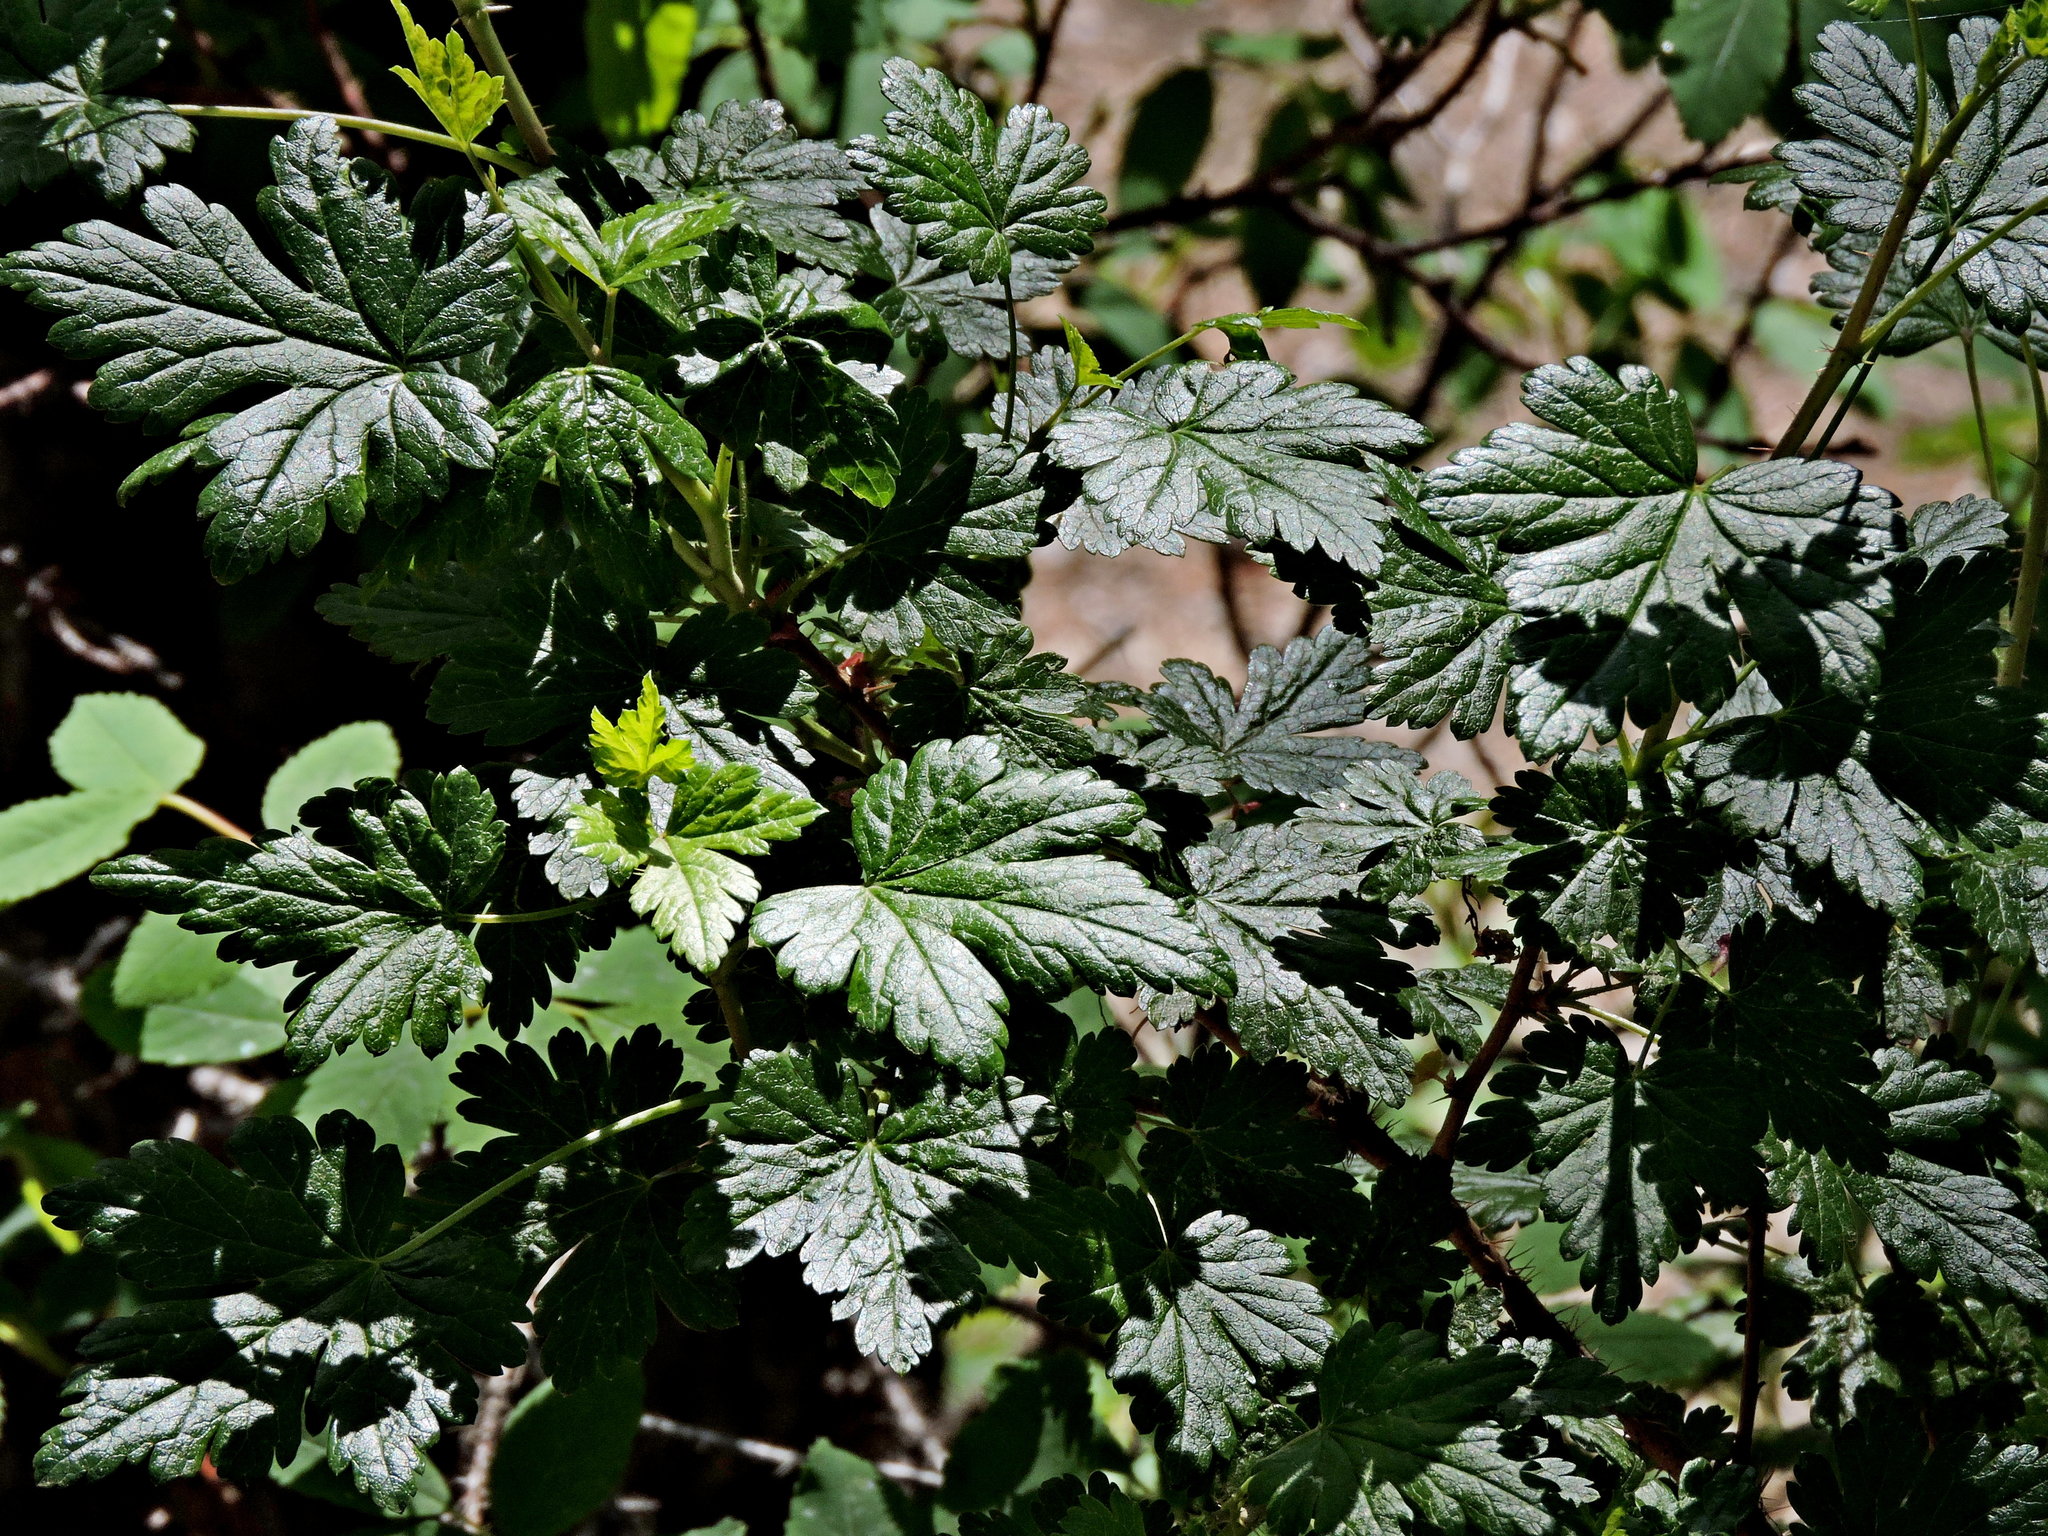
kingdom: Plantae
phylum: Tracheophyta
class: Magnoliopsida
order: Saxifragales
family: Grossulariaceae
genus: Ribes
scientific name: Ribes lacustre
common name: Black gooseberry
